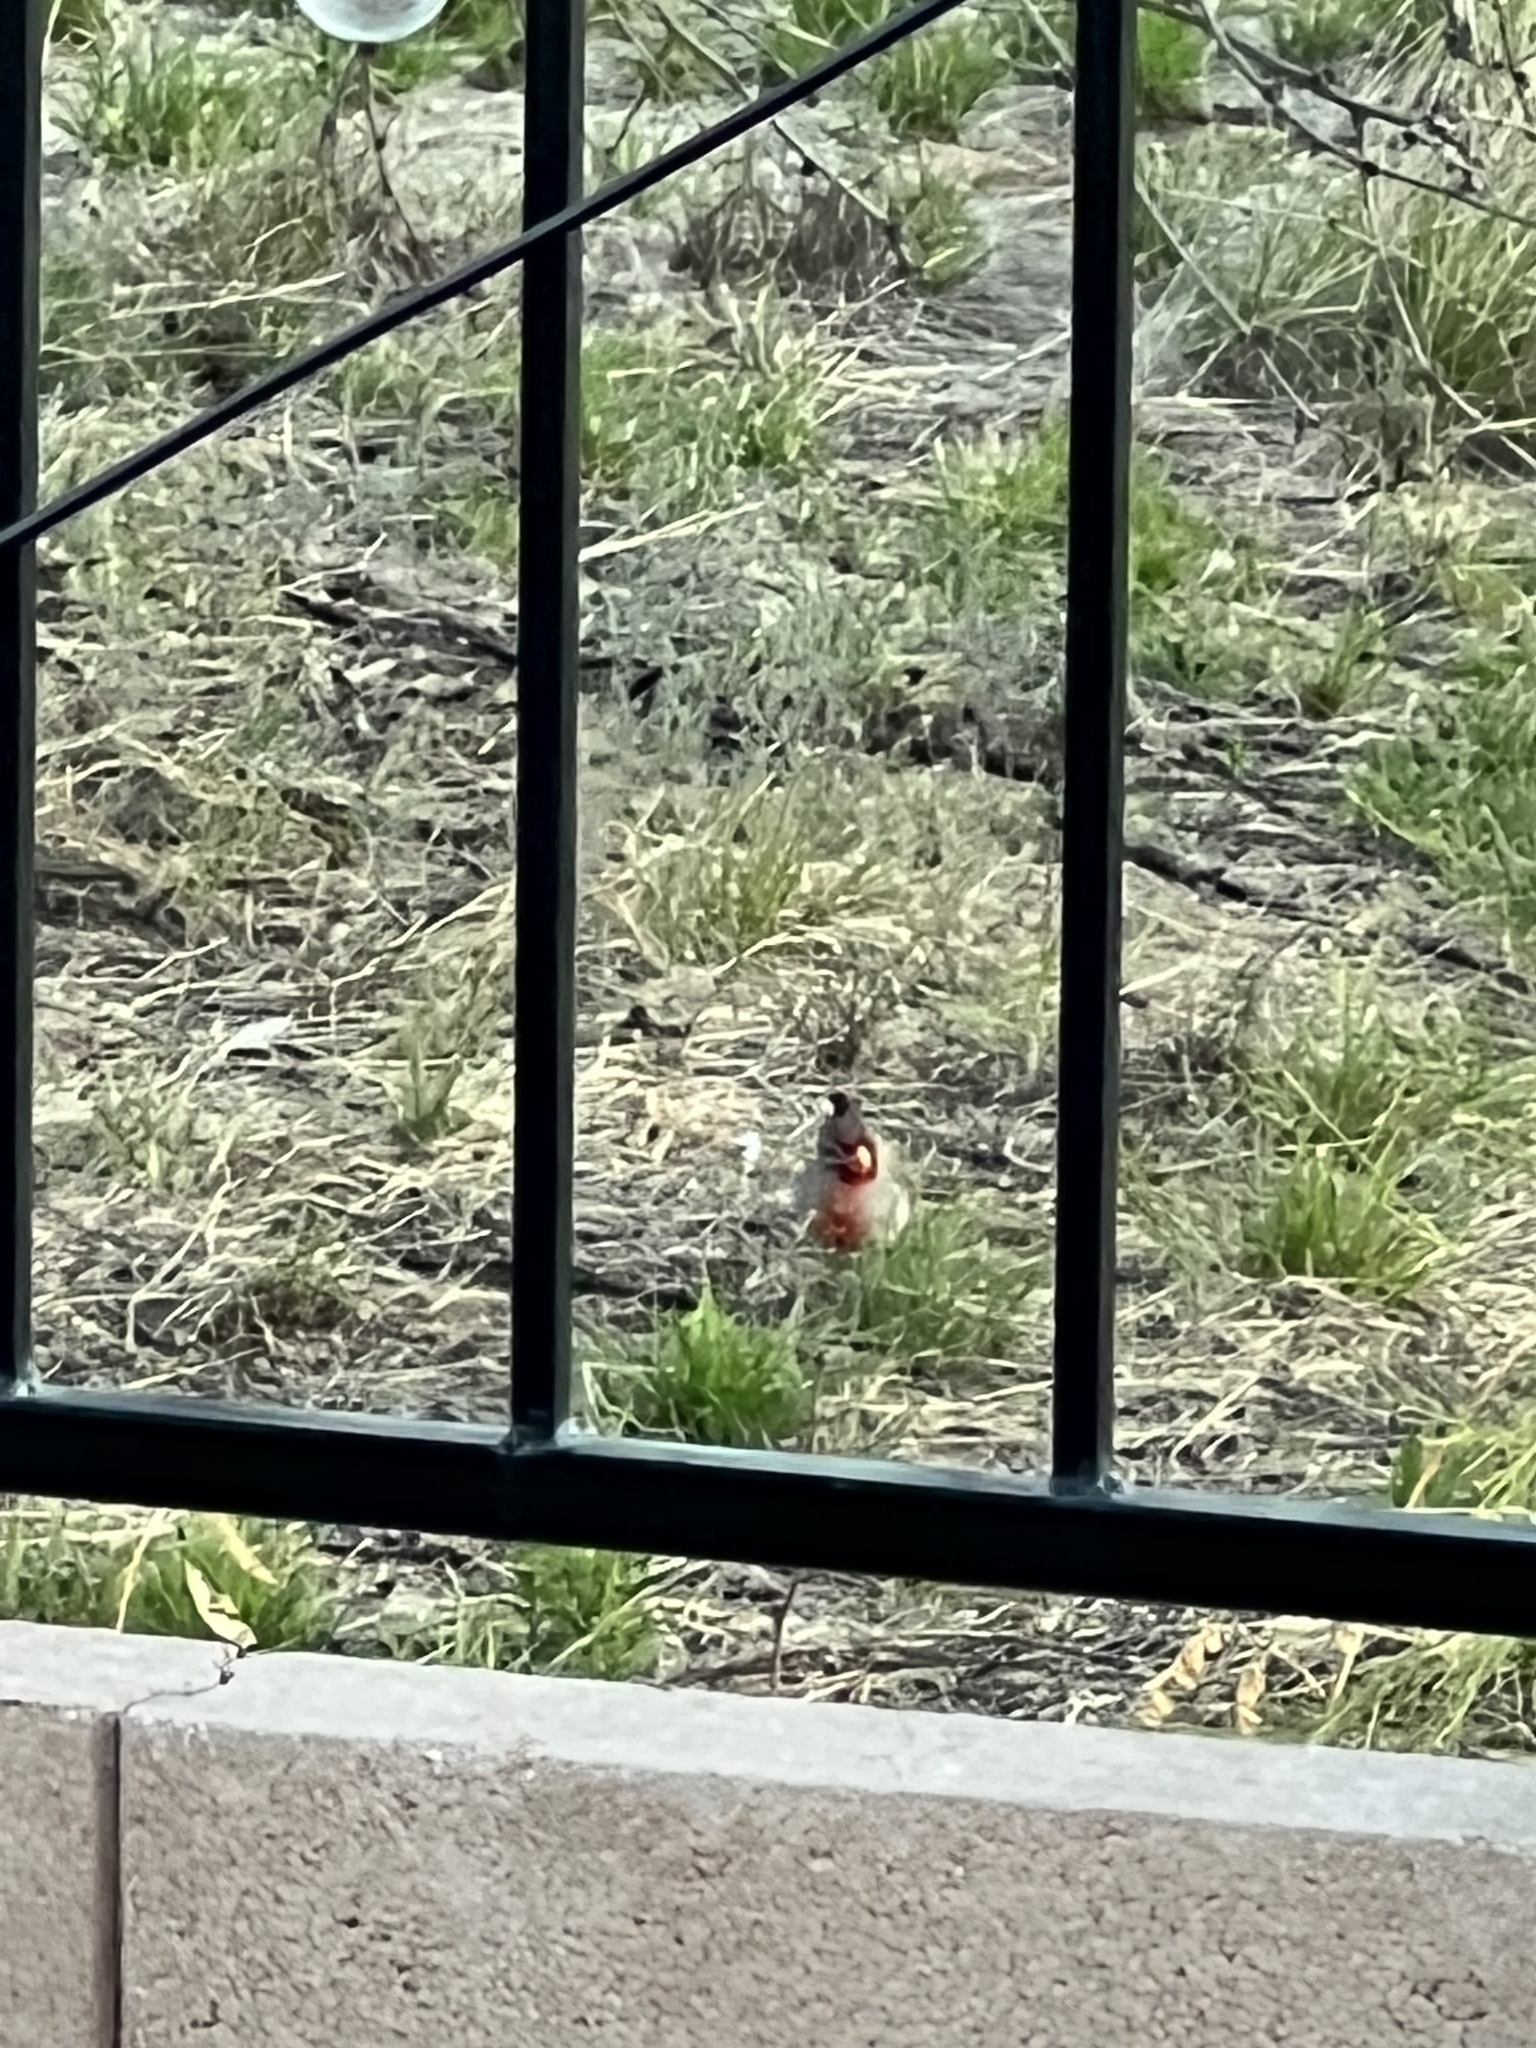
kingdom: Animalia
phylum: Chordata
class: Aves
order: Passeriformes
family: Cardinalidae
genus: Cardinalis
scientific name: Cardinalis sinuatus
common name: Pyrrhuloxia
